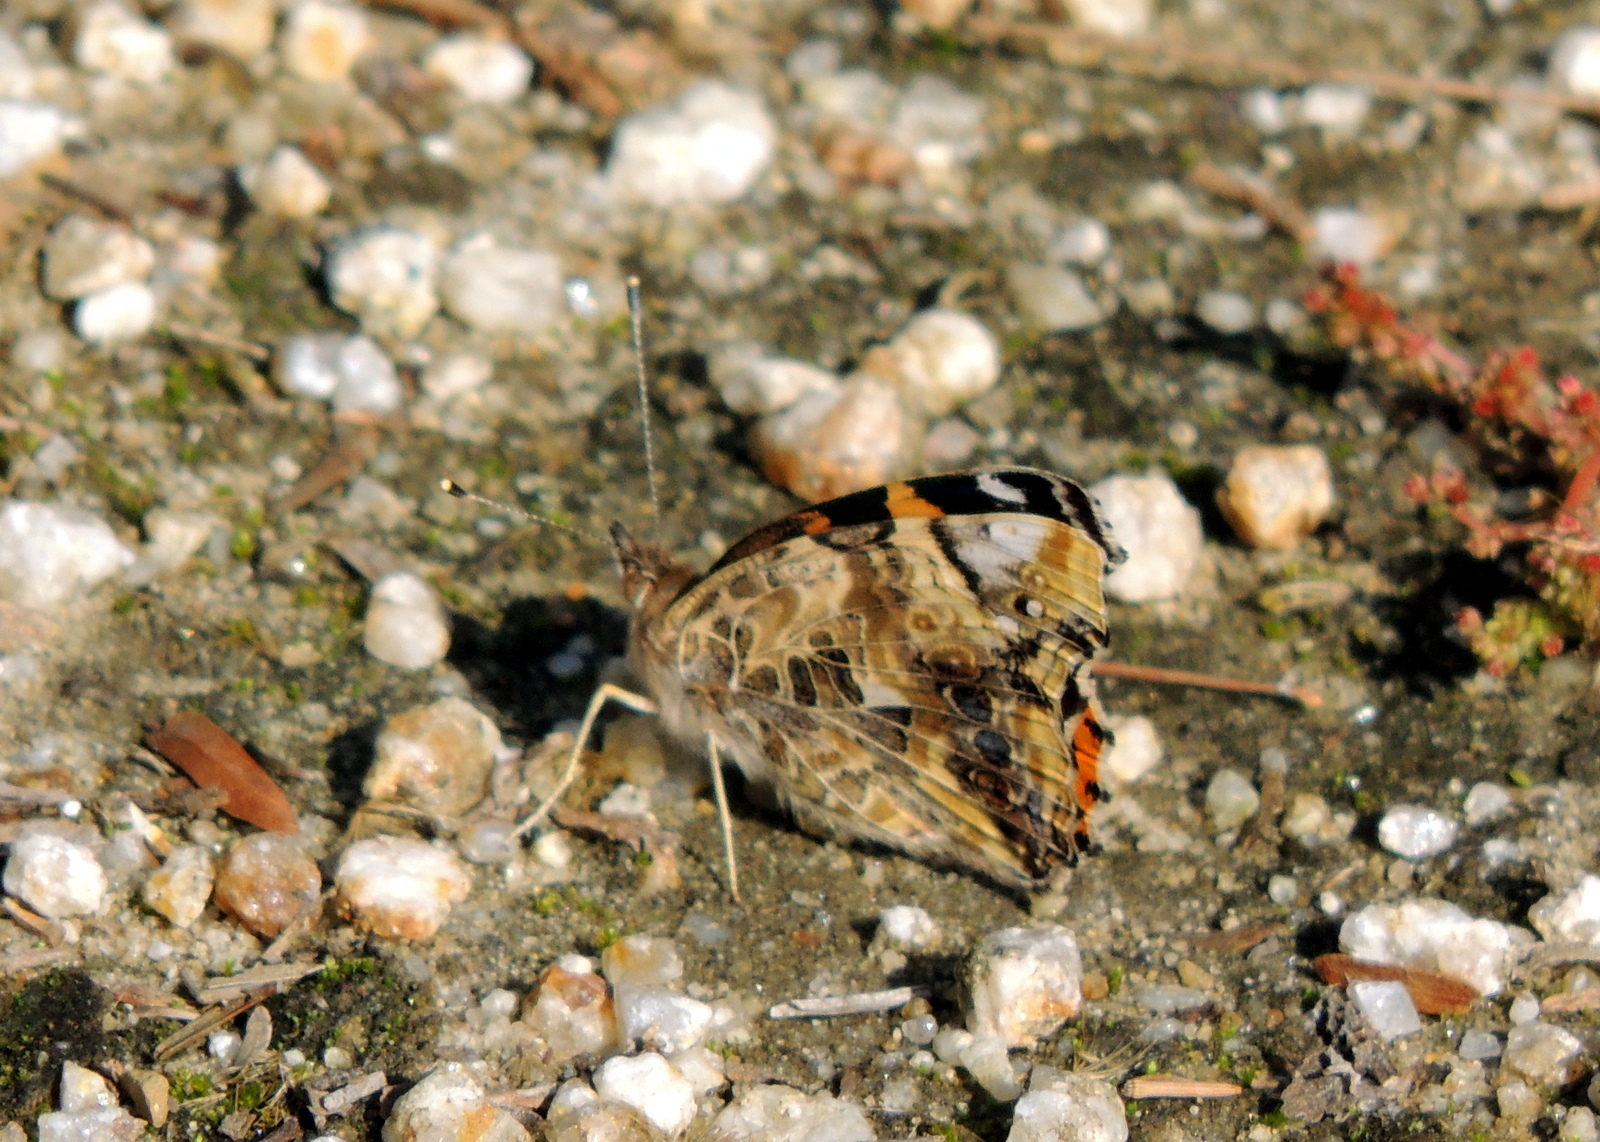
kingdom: Animalia
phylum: Arthropoda
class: Insecta
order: Lepidoptera
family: Nymphalidae
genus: Vanessa
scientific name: Vanessa annabella
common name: West coast lady
